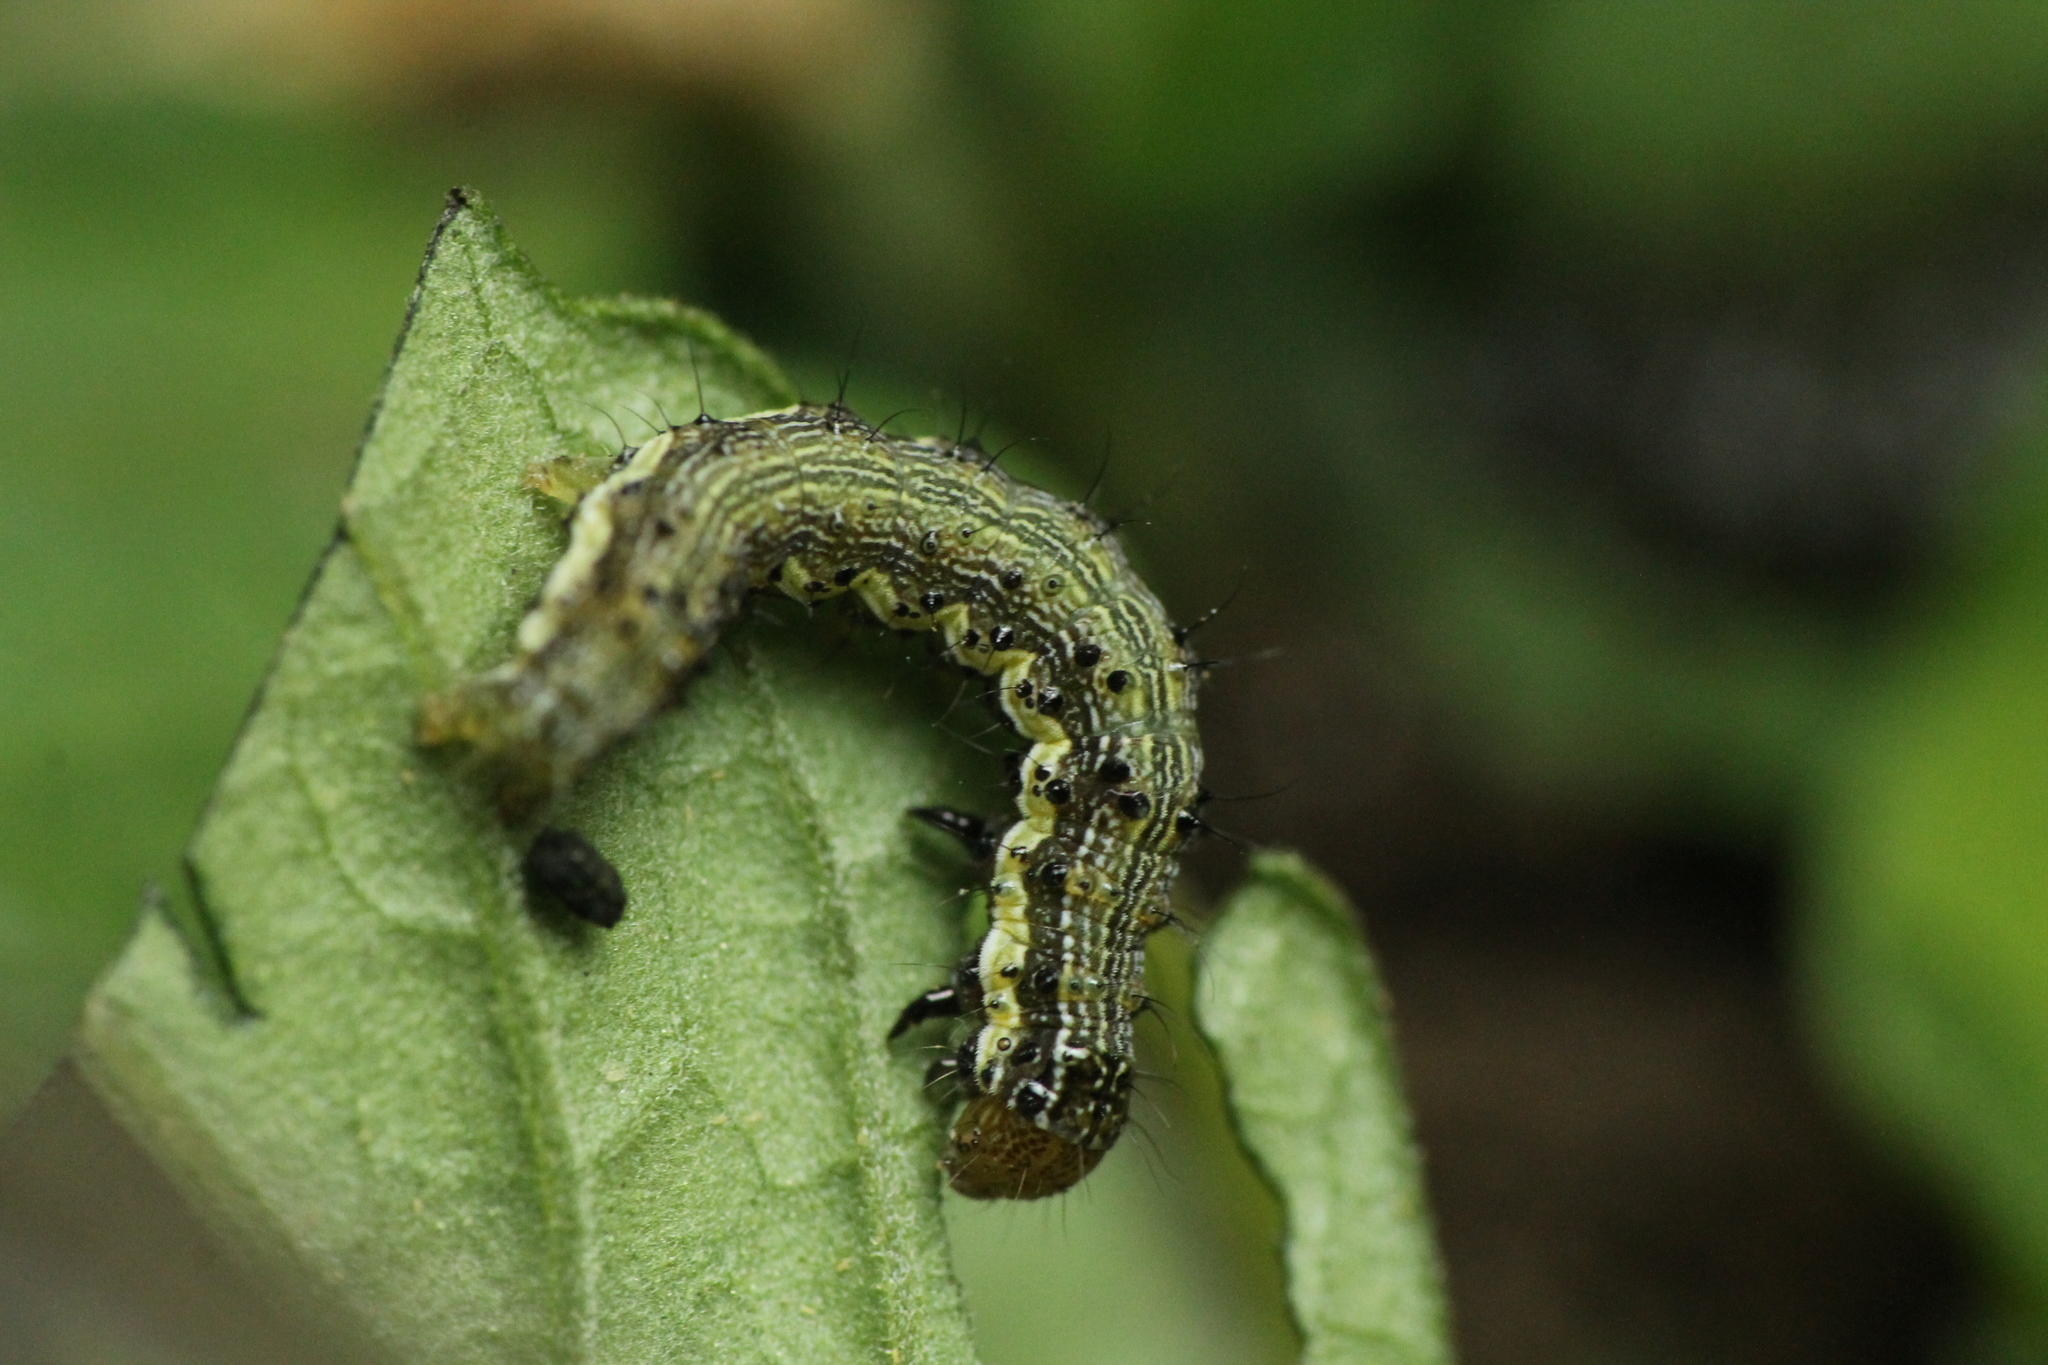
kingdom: Animalia
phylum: Arthropoda
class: Insecta
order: Lepidoptera
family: Noctuidae
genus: Helicoverpa
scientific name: Helicoverpa armigera
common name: Cotton bollworm
